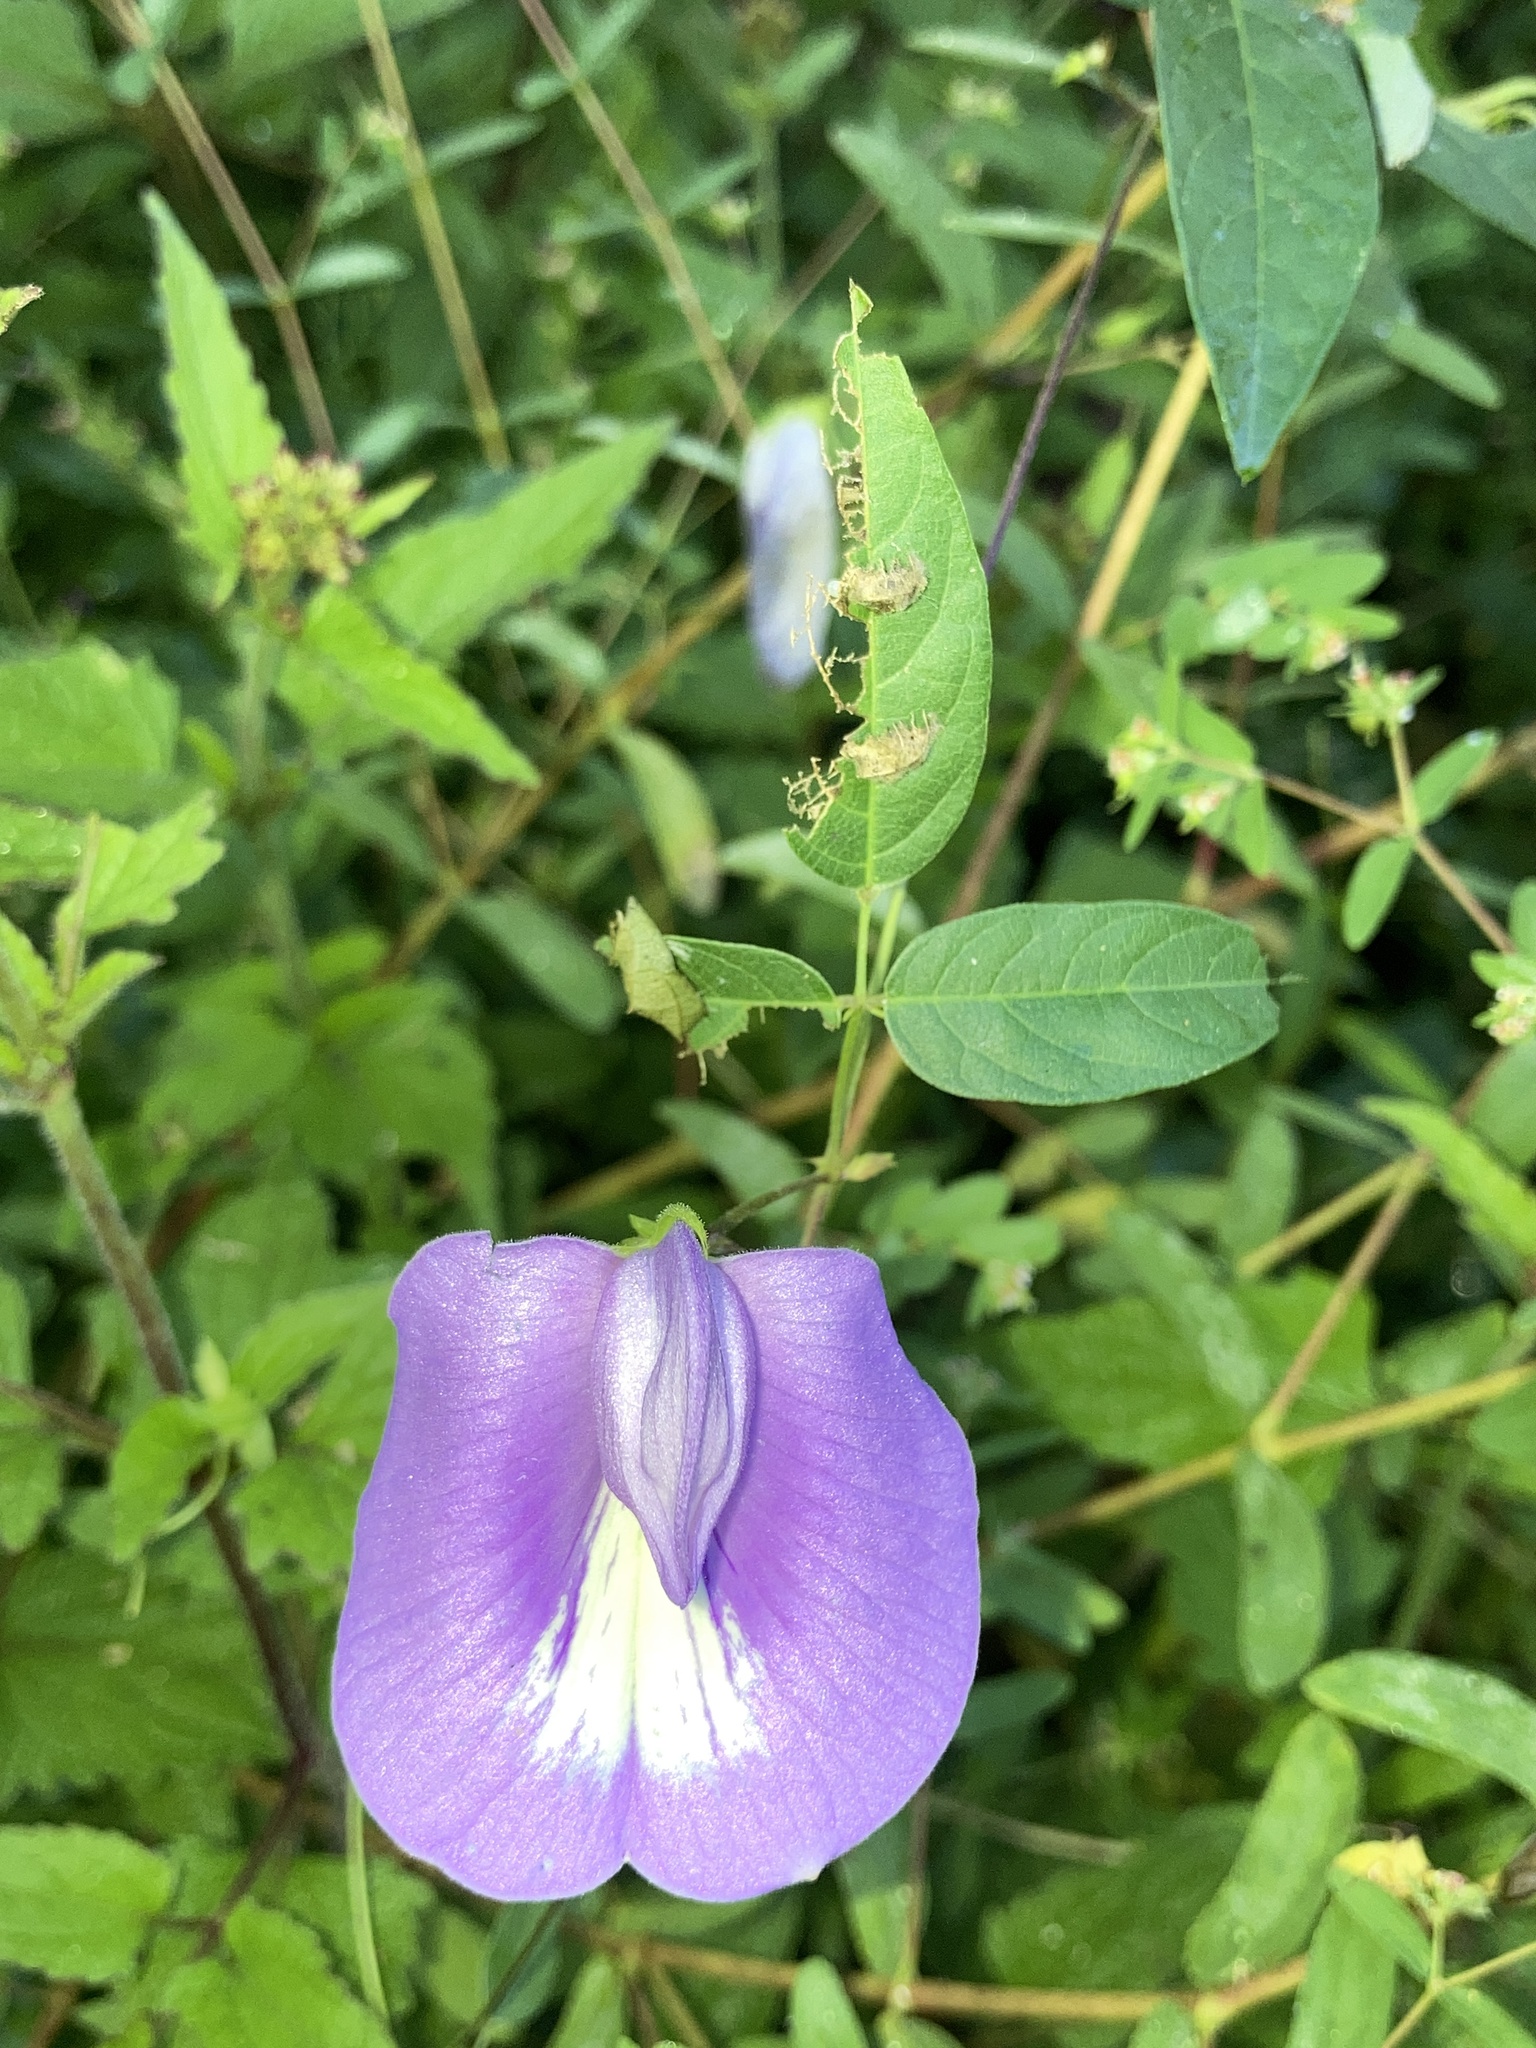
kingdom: Plantae
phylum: Tracheophyta
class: Magnoliopsida
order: Fabales
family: Fabaceae
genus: Centrosema
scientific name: Centrosema virginianum
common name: Butterfly-pea
